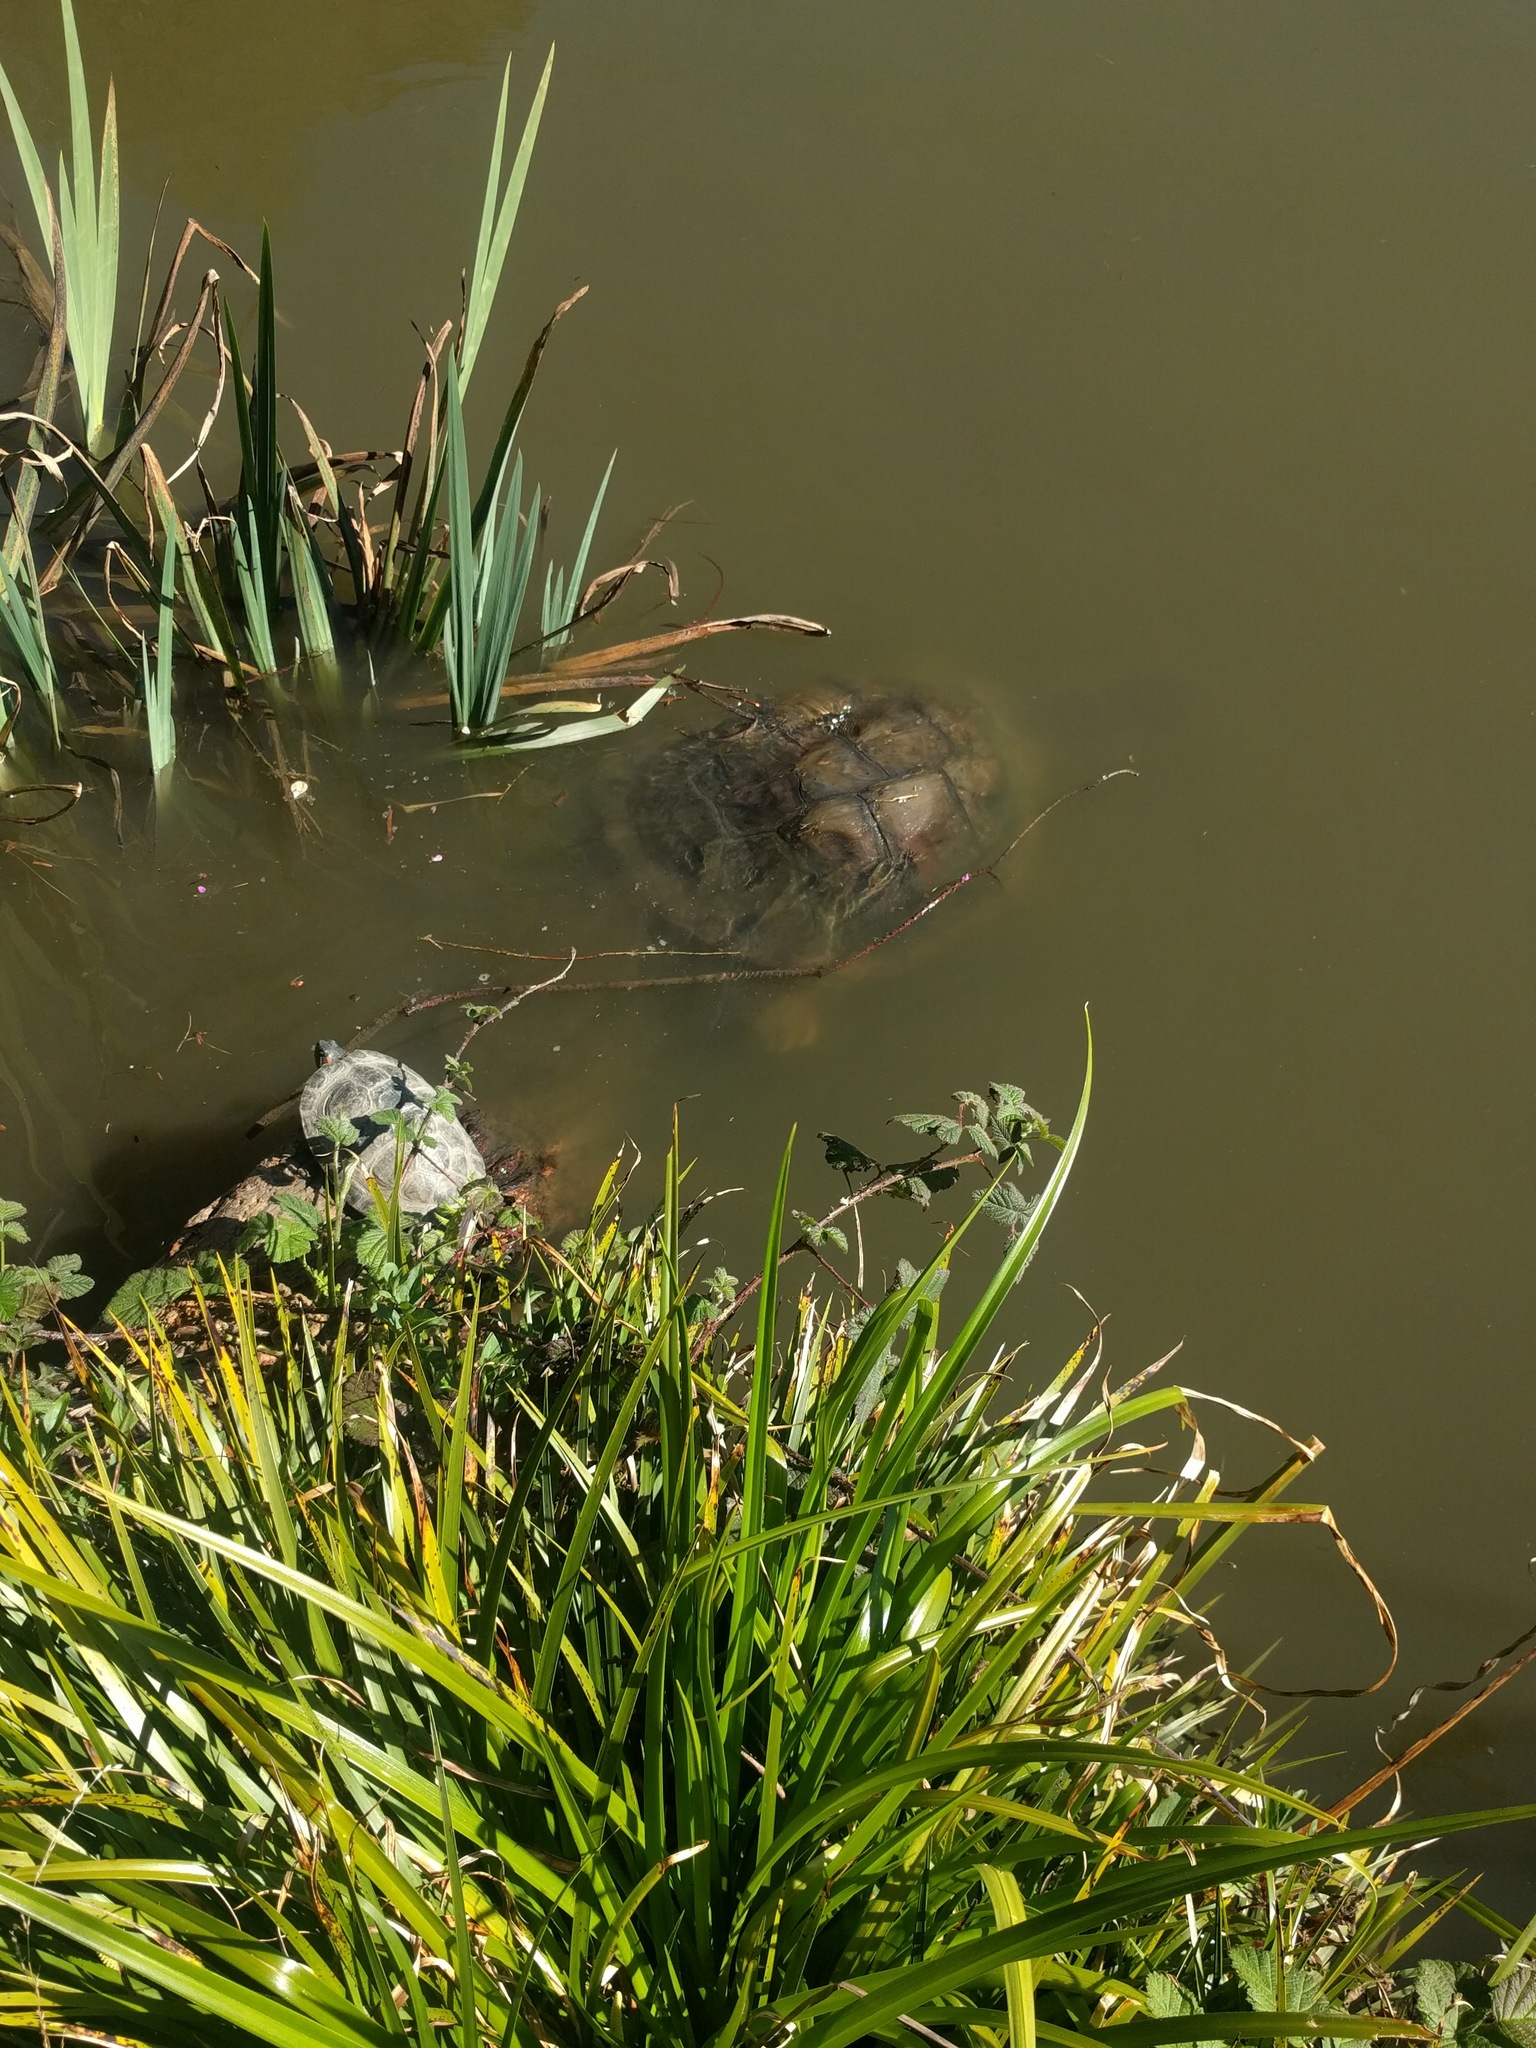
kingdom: Animalia
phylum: Chordata
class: Testudines
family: Chelydridae
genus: Chelydra
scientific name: Chelydra serpentina
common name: Common snapping turtle
